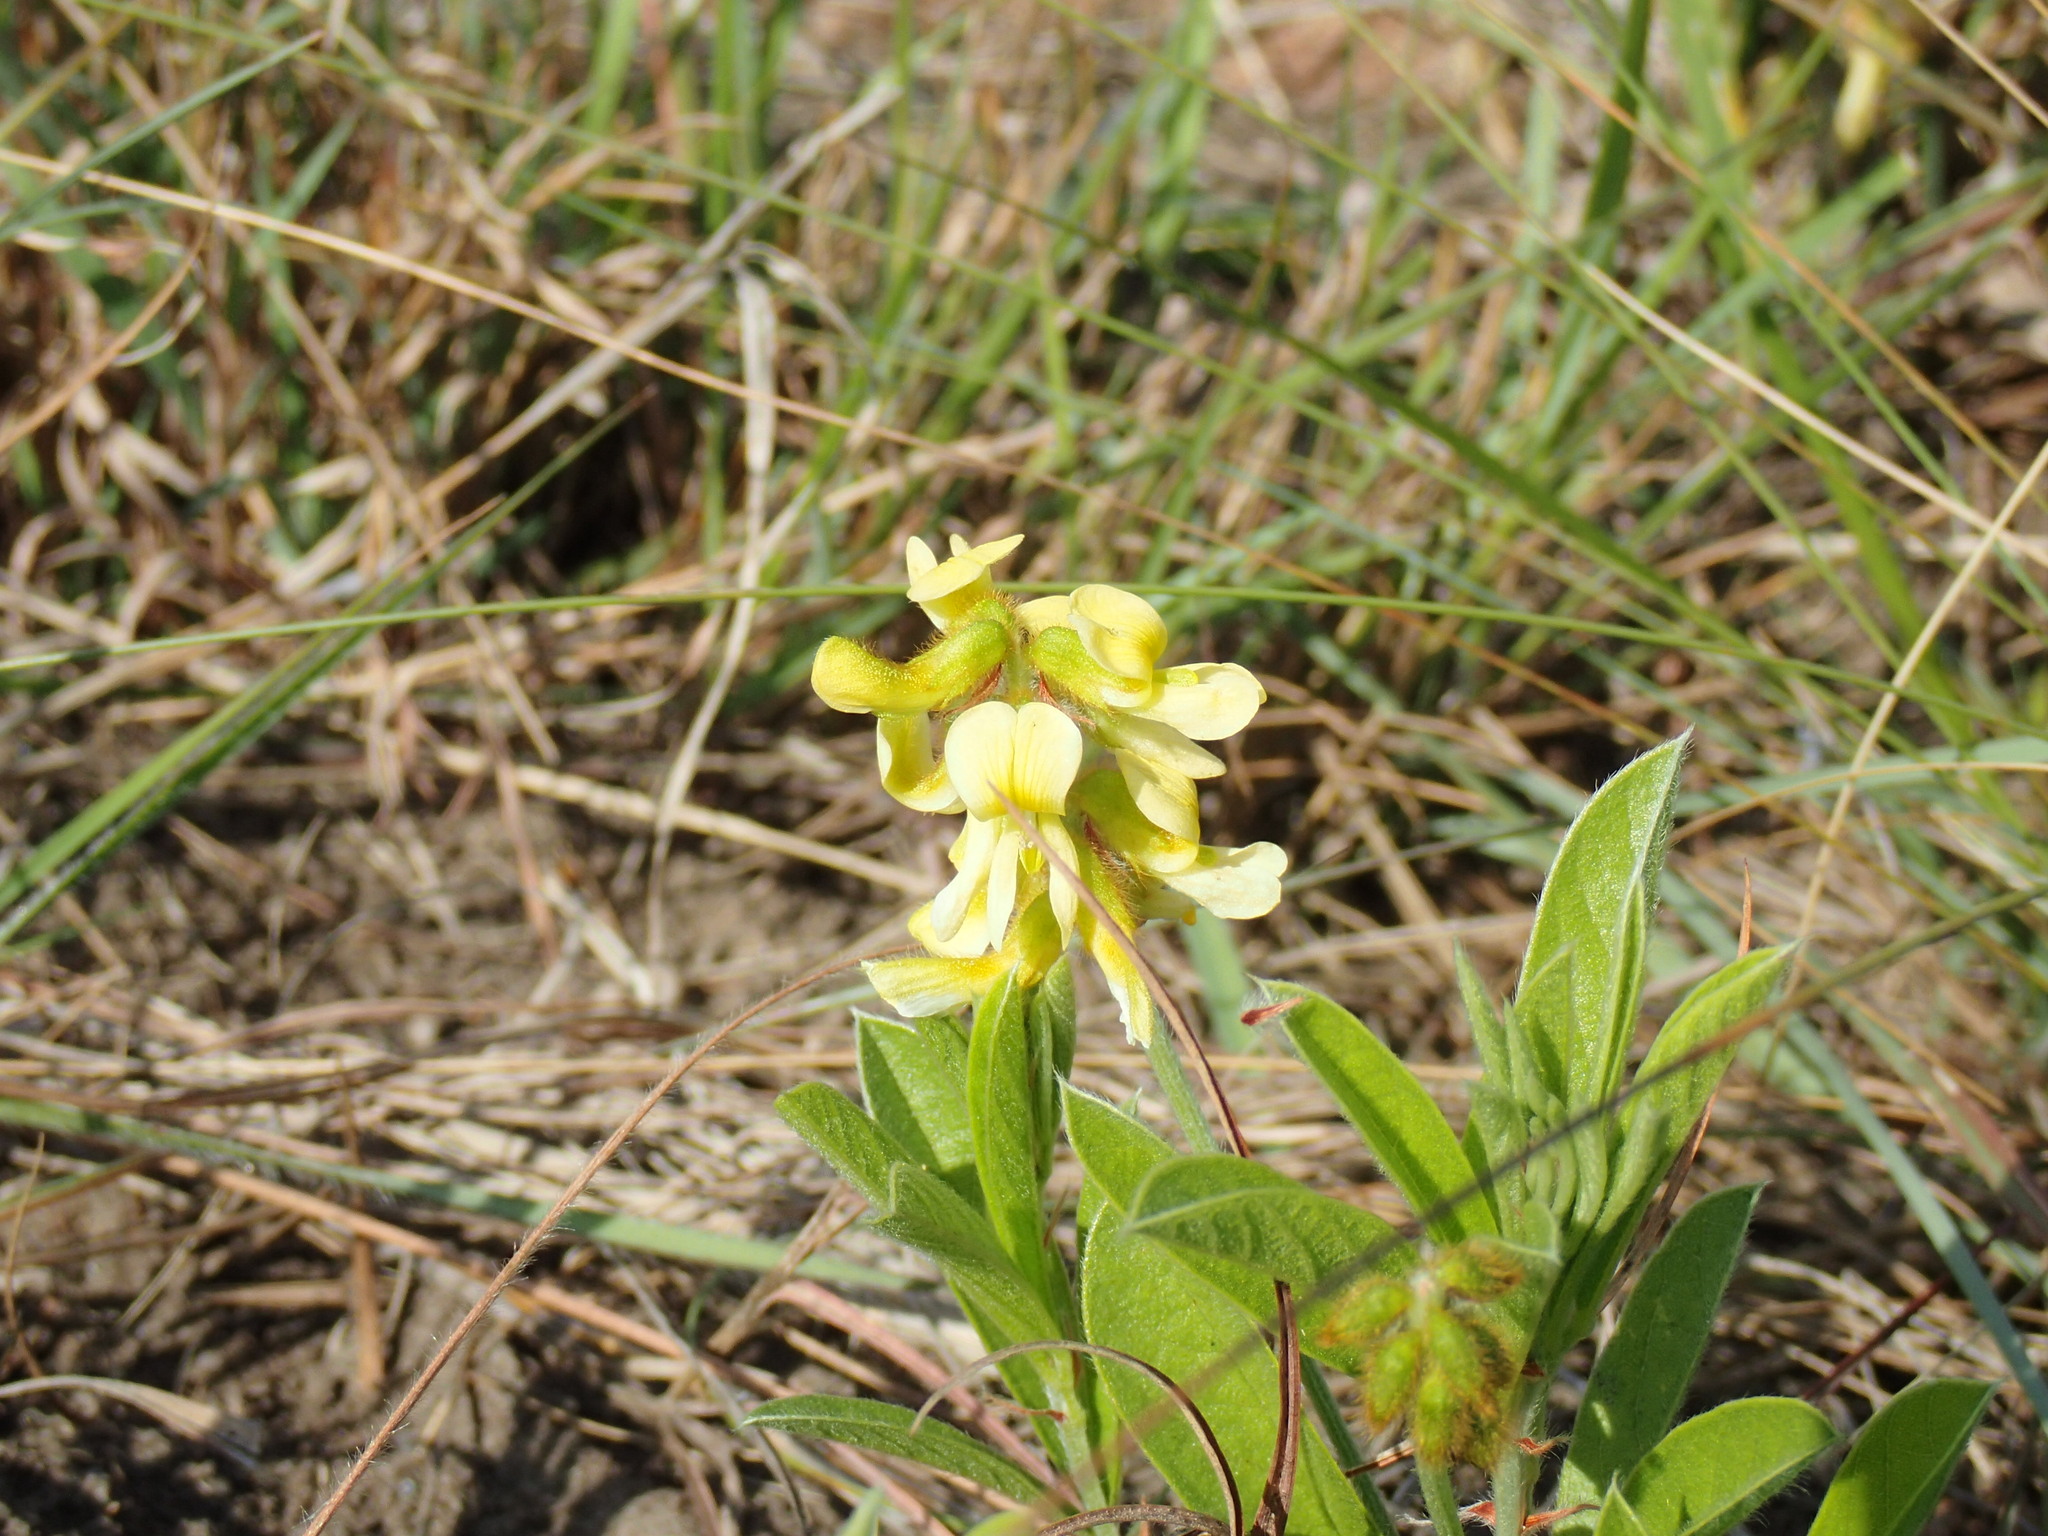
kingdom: Plantae
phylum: Tracheophyta
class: Magnoliopsida
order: Fabales
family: Fabaceae
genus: Eriosema
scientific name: Eriosema kraussianum
